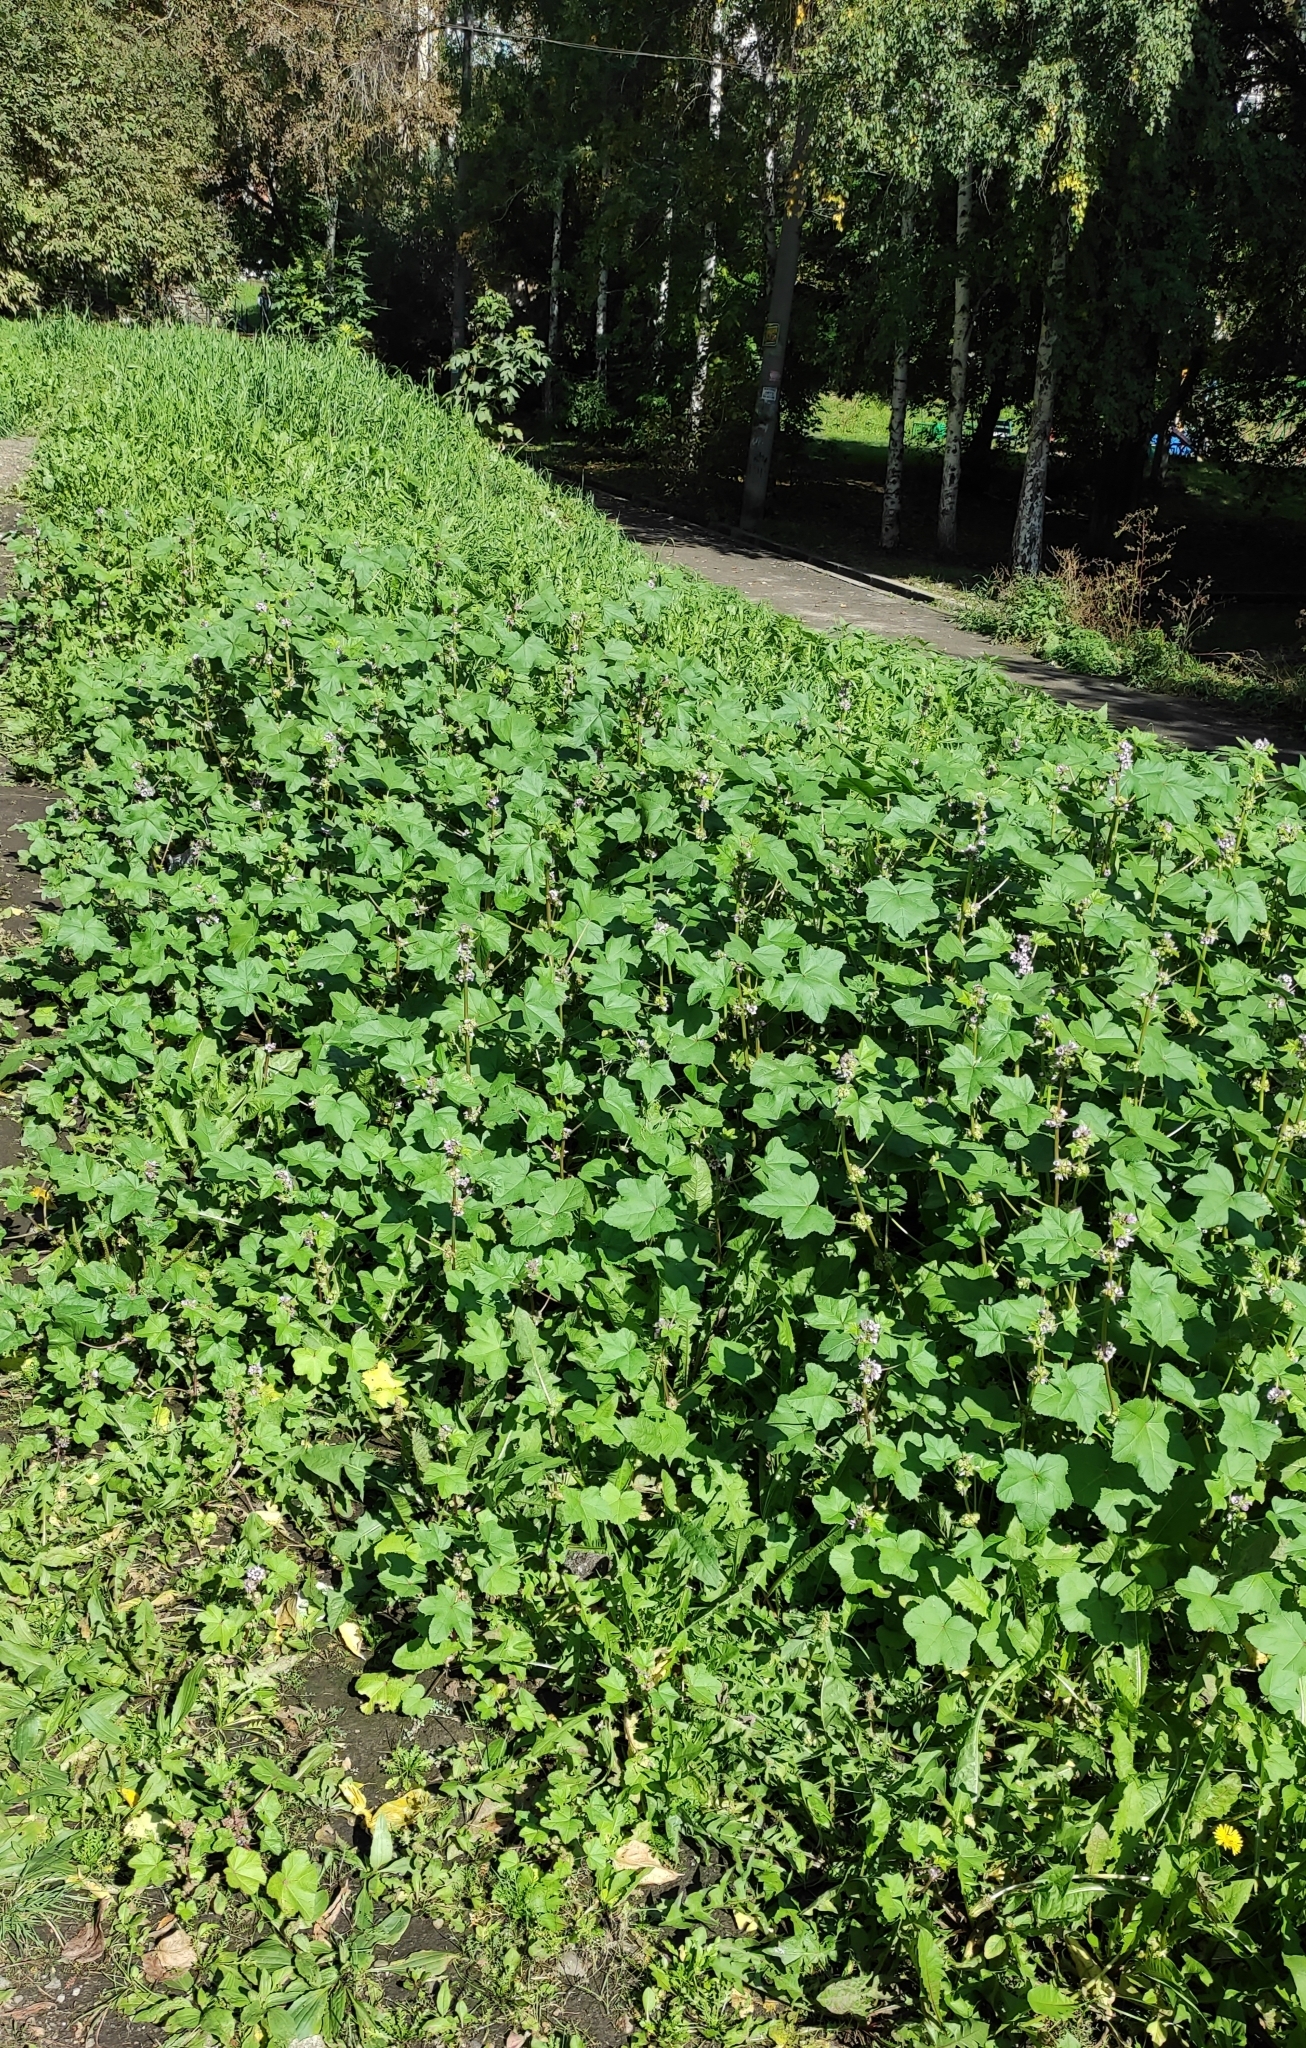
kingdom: Plantae
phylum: Tracheophyta
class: Magnoliopsida
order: Malvales
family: Malvaceae
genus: Malva
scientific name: Malva verticillata
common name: Chinese mallow
